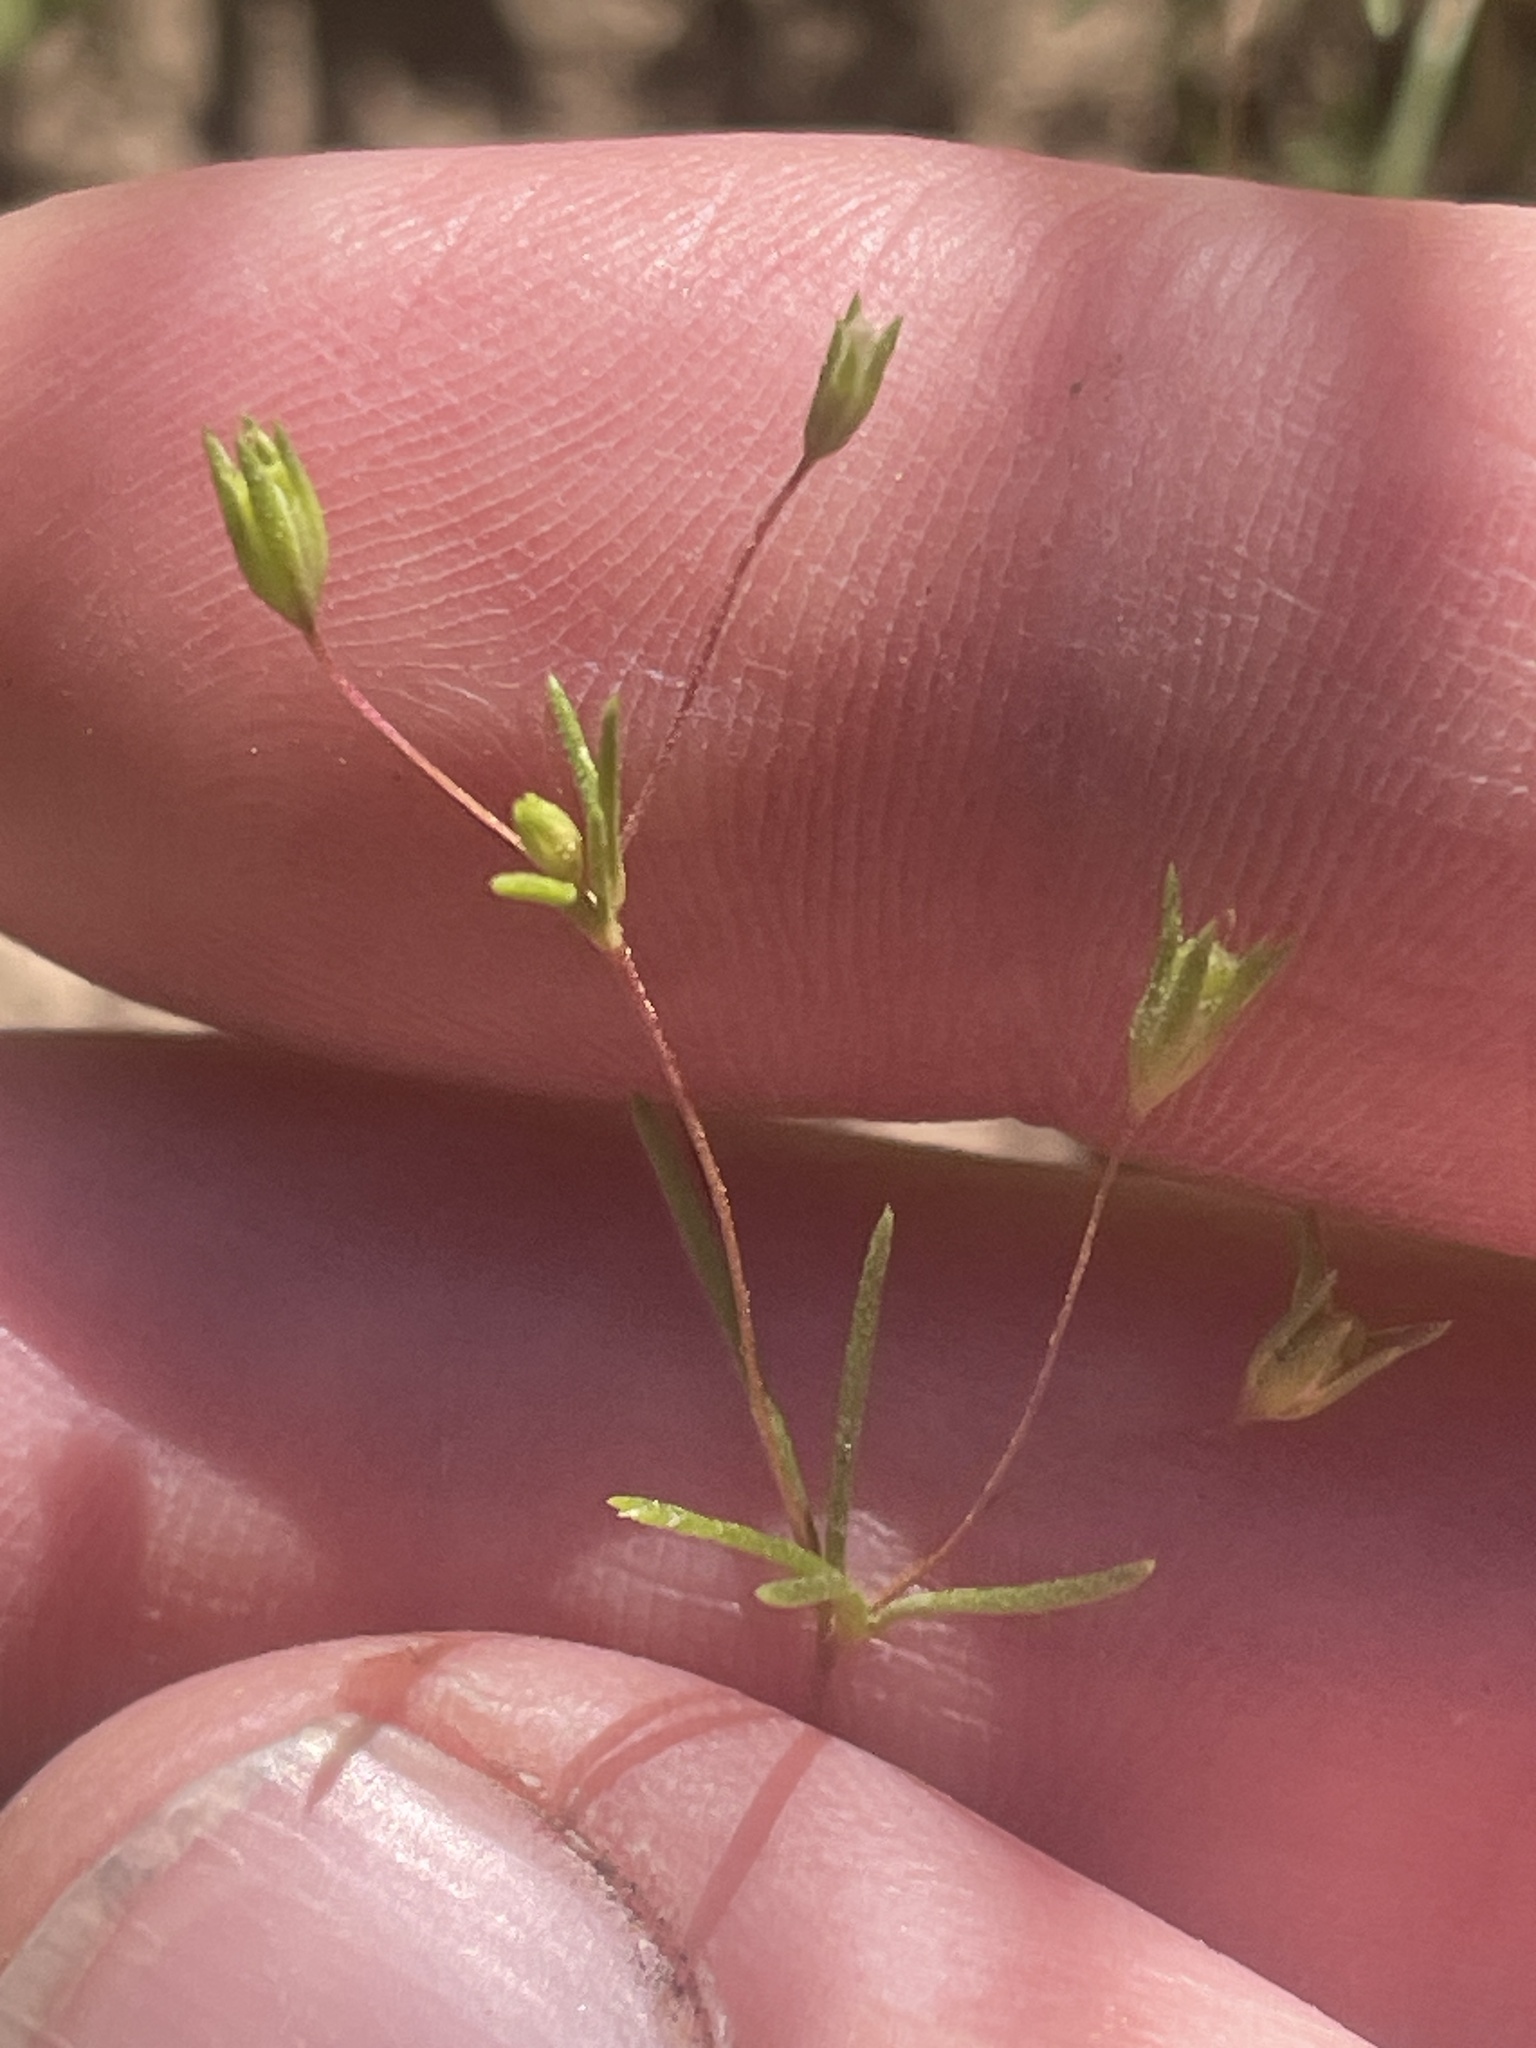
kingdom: Plantae
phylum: Tracheophyta
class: Magnoliopsida
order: Ericales
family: Polemoniaceae
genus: Linanthus
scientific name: Linanthus harknessii
